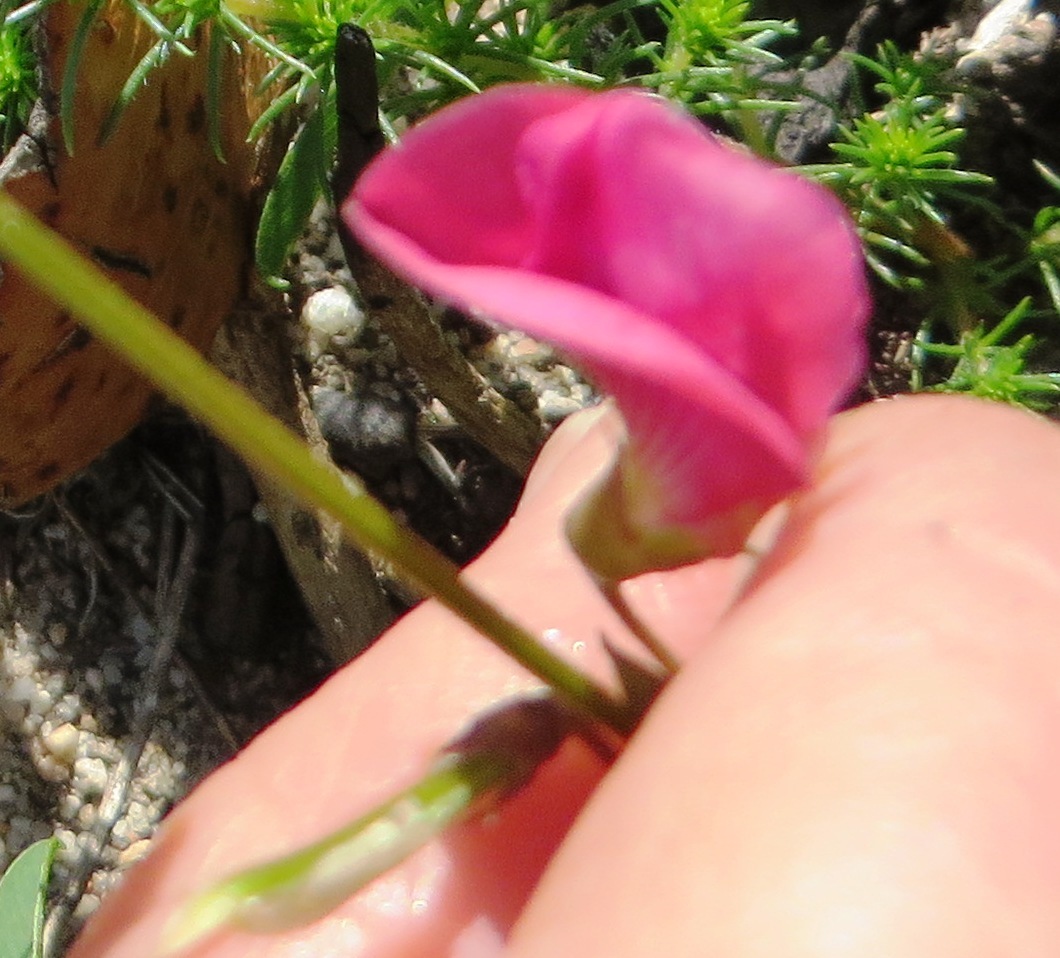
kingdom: Plantae
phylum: Tracheophyta
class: Magnoliopsida
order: Fabales
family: Fabaceae
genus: Tephrosia
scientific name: Tephrosia capensis
